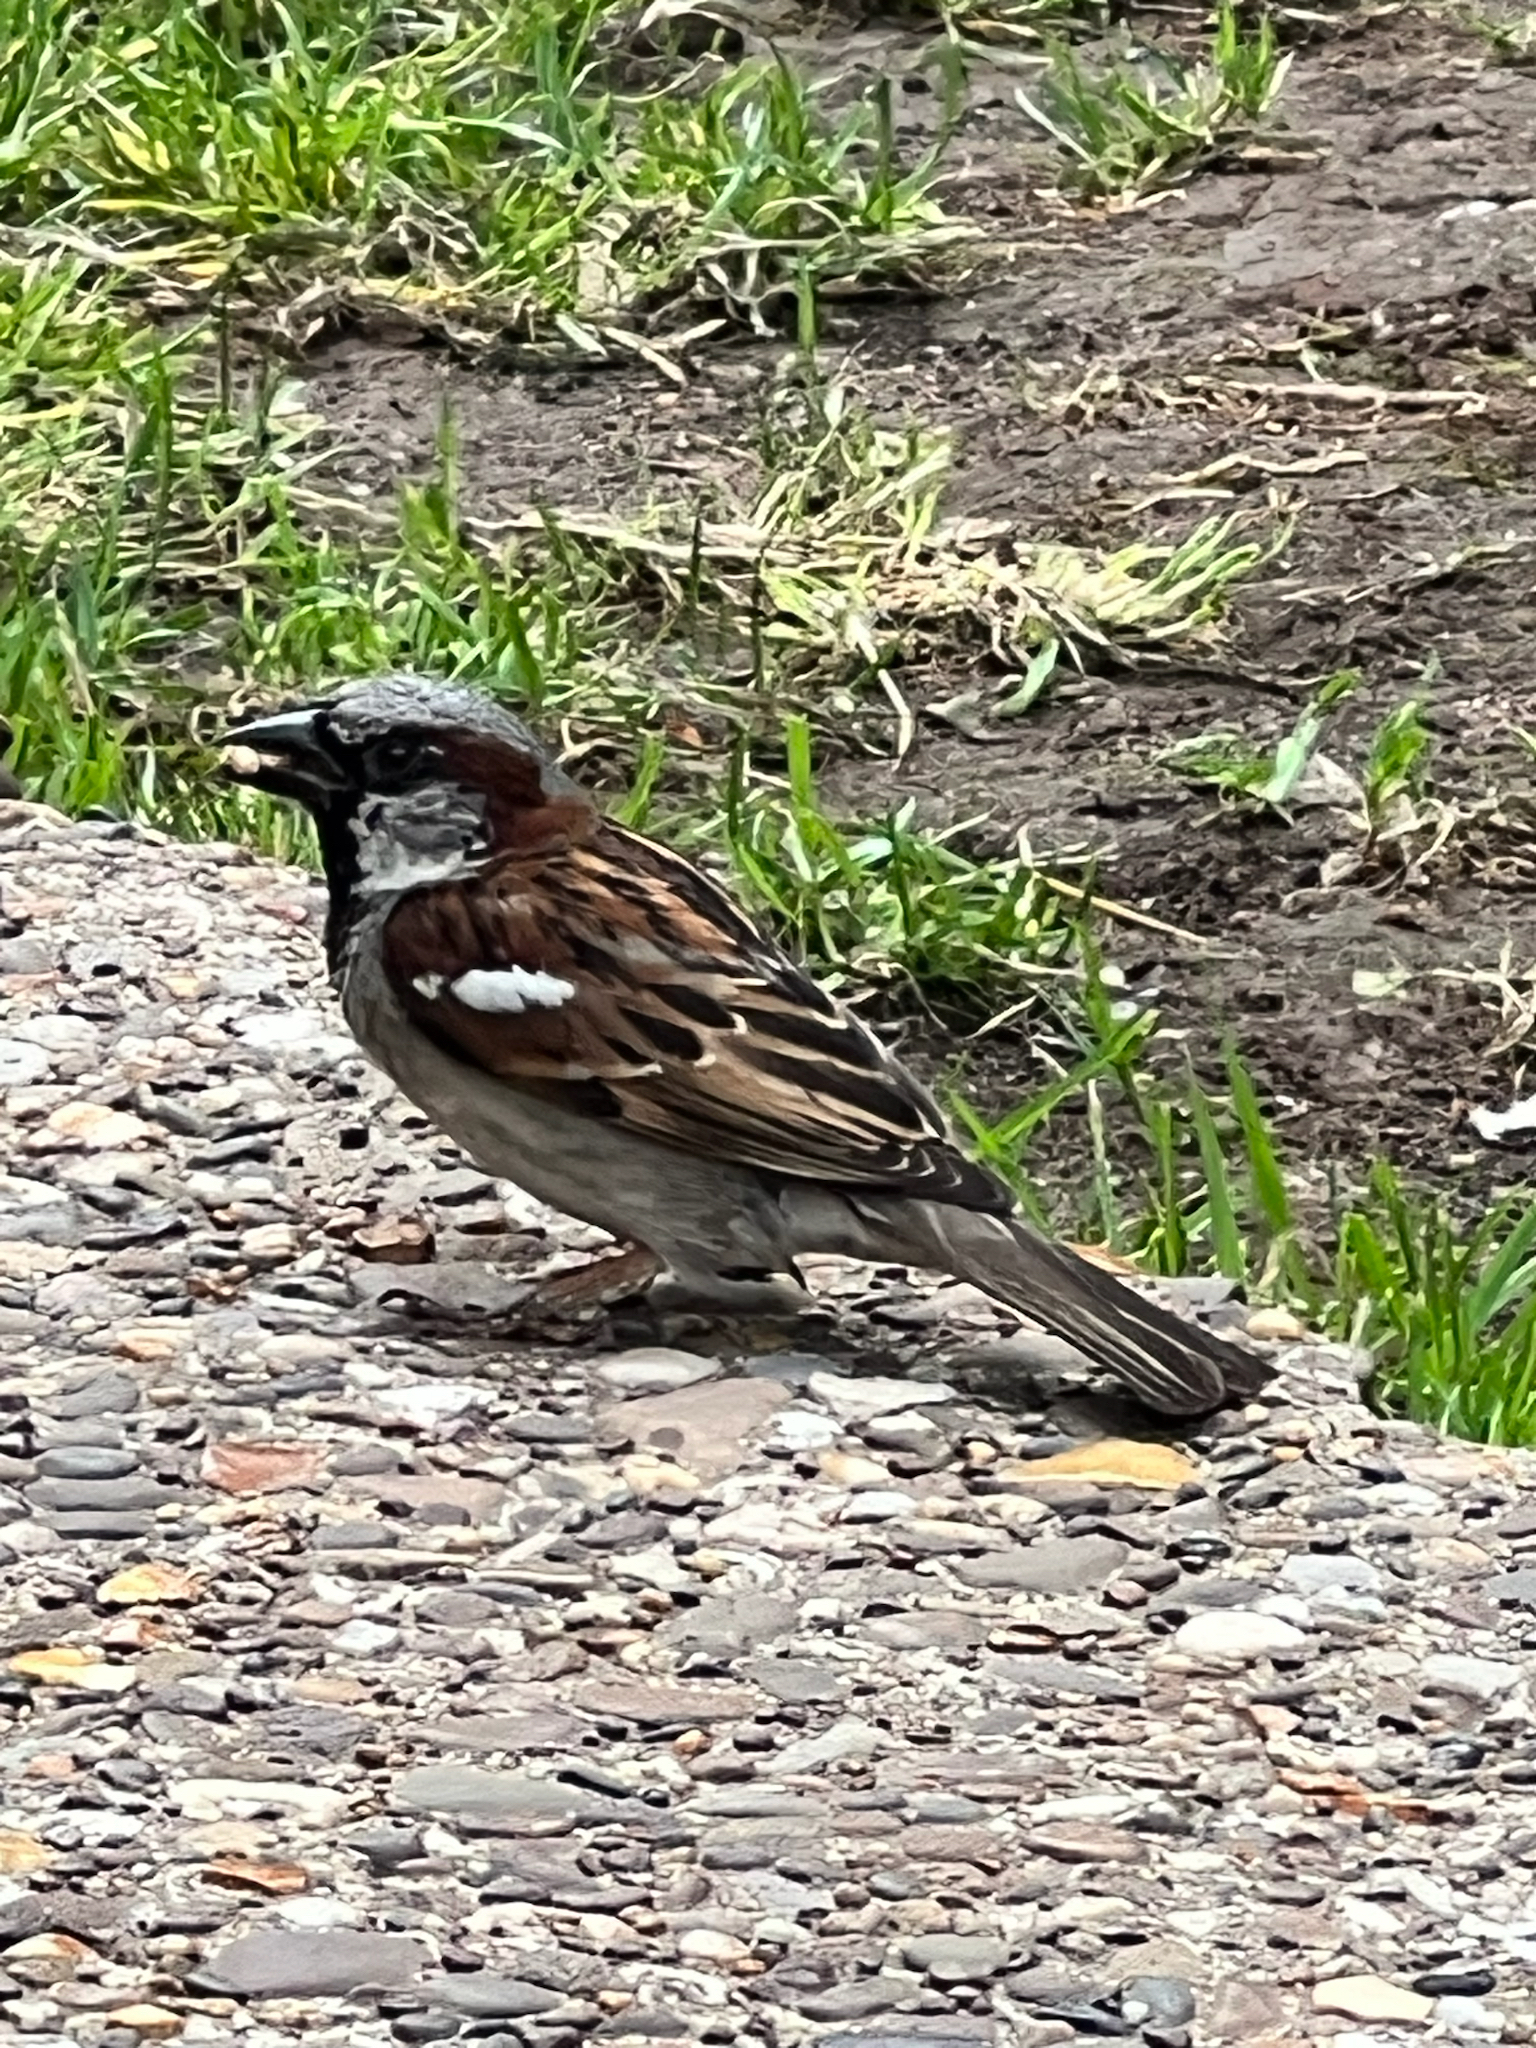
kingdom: Animalia
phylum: Chordata
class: Aves
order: Passeriformes
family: Passeridae
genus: Passer
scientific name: Passer domesticus
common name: House sparrow
